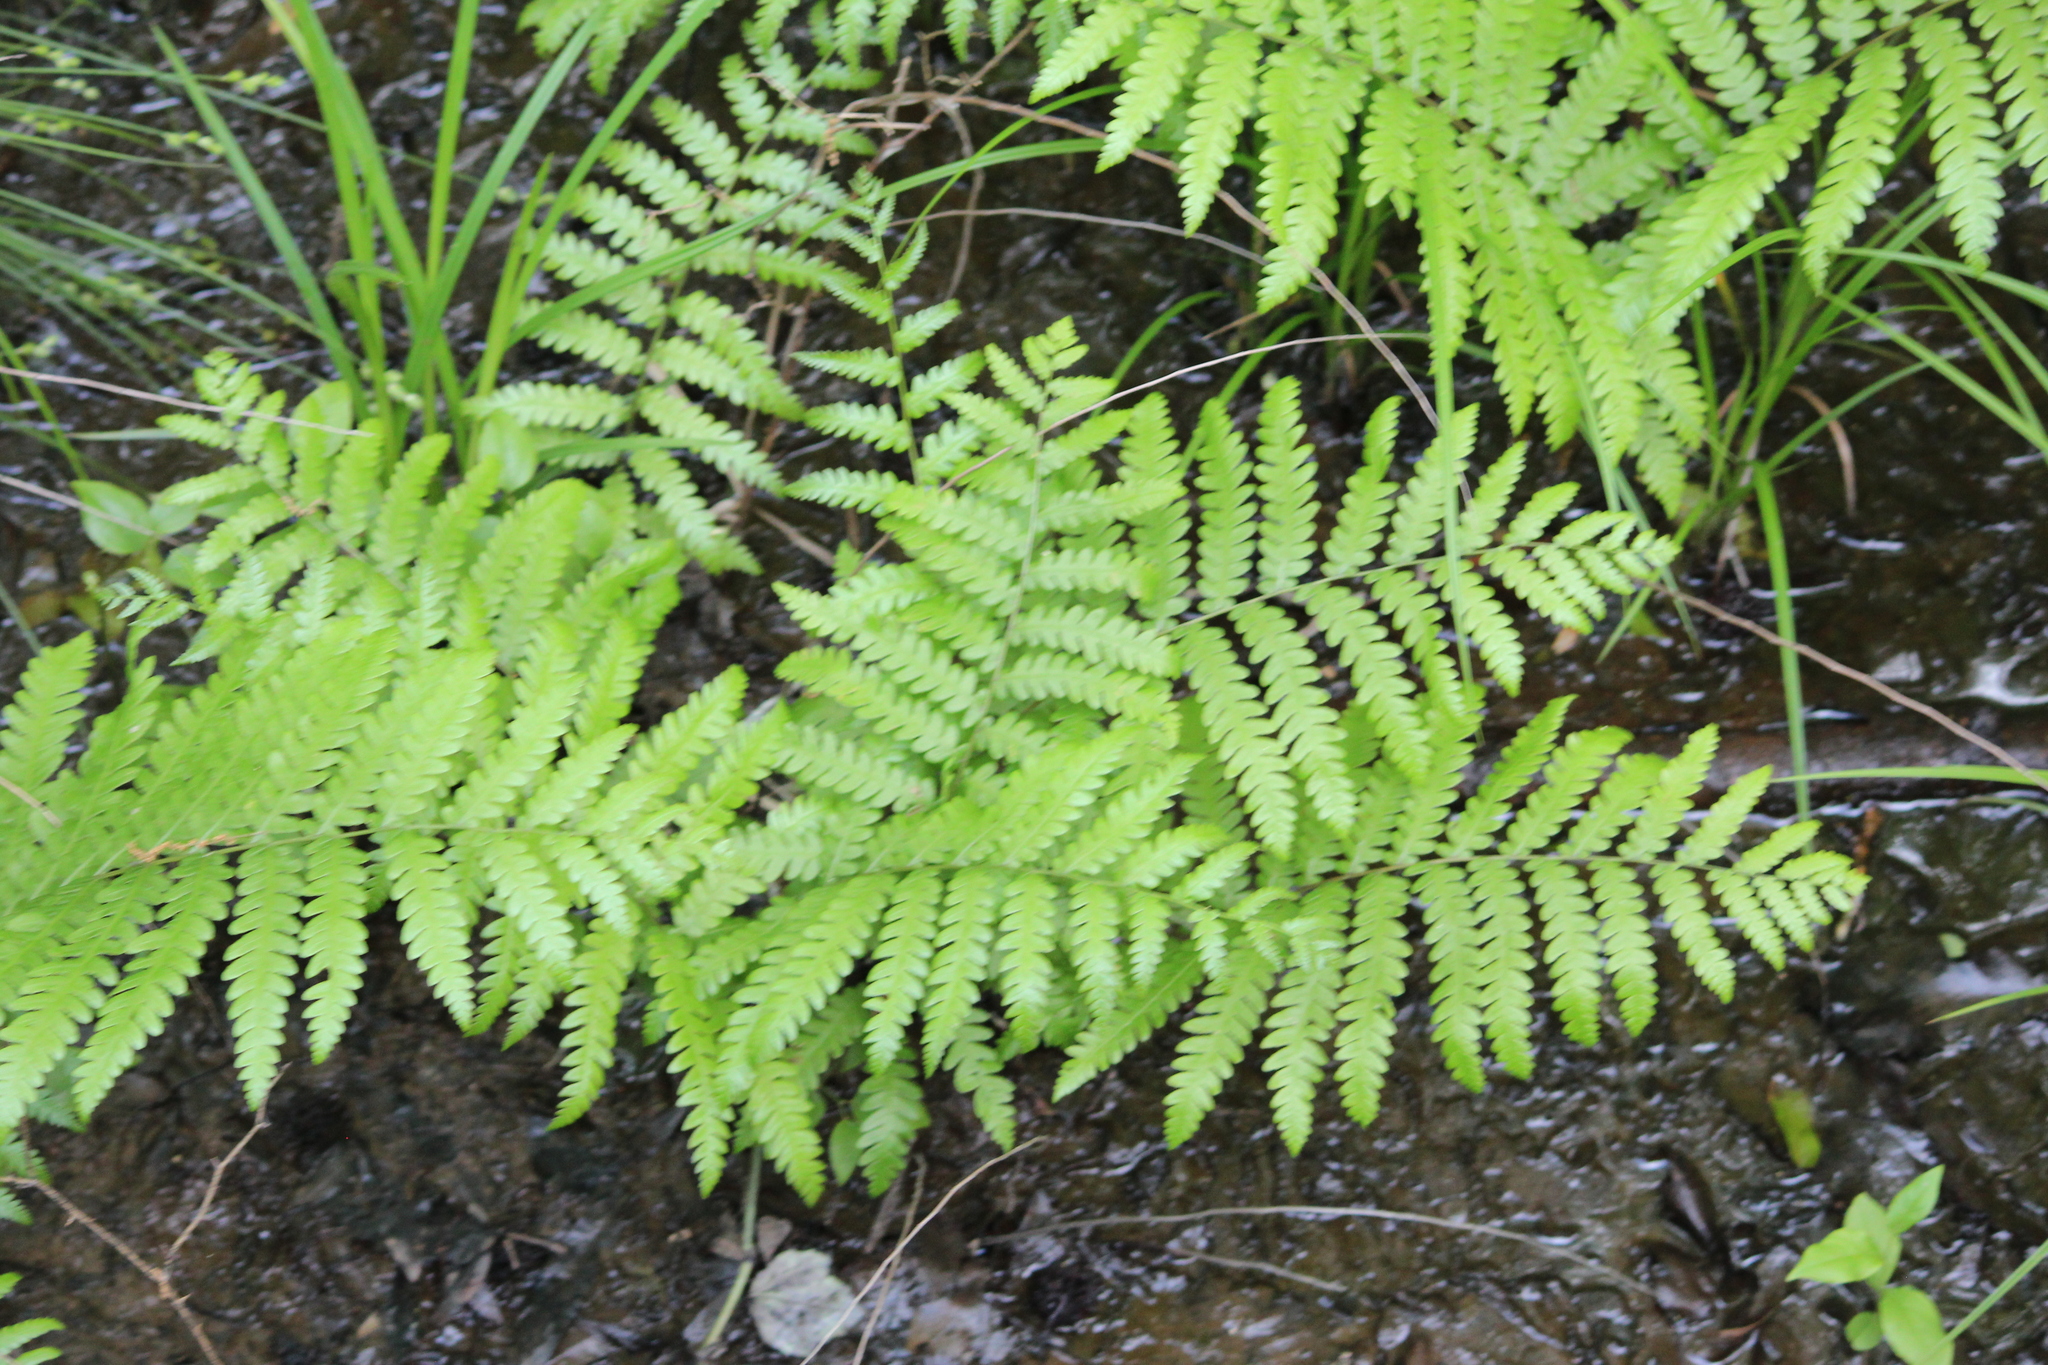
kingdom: Plantae
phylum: Tracheophyta
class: Polypodiopsida
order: Polypodiales
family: Blechnaceae
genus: Anchistea
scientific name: Anchistea virginica
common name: Virginia chain fern
